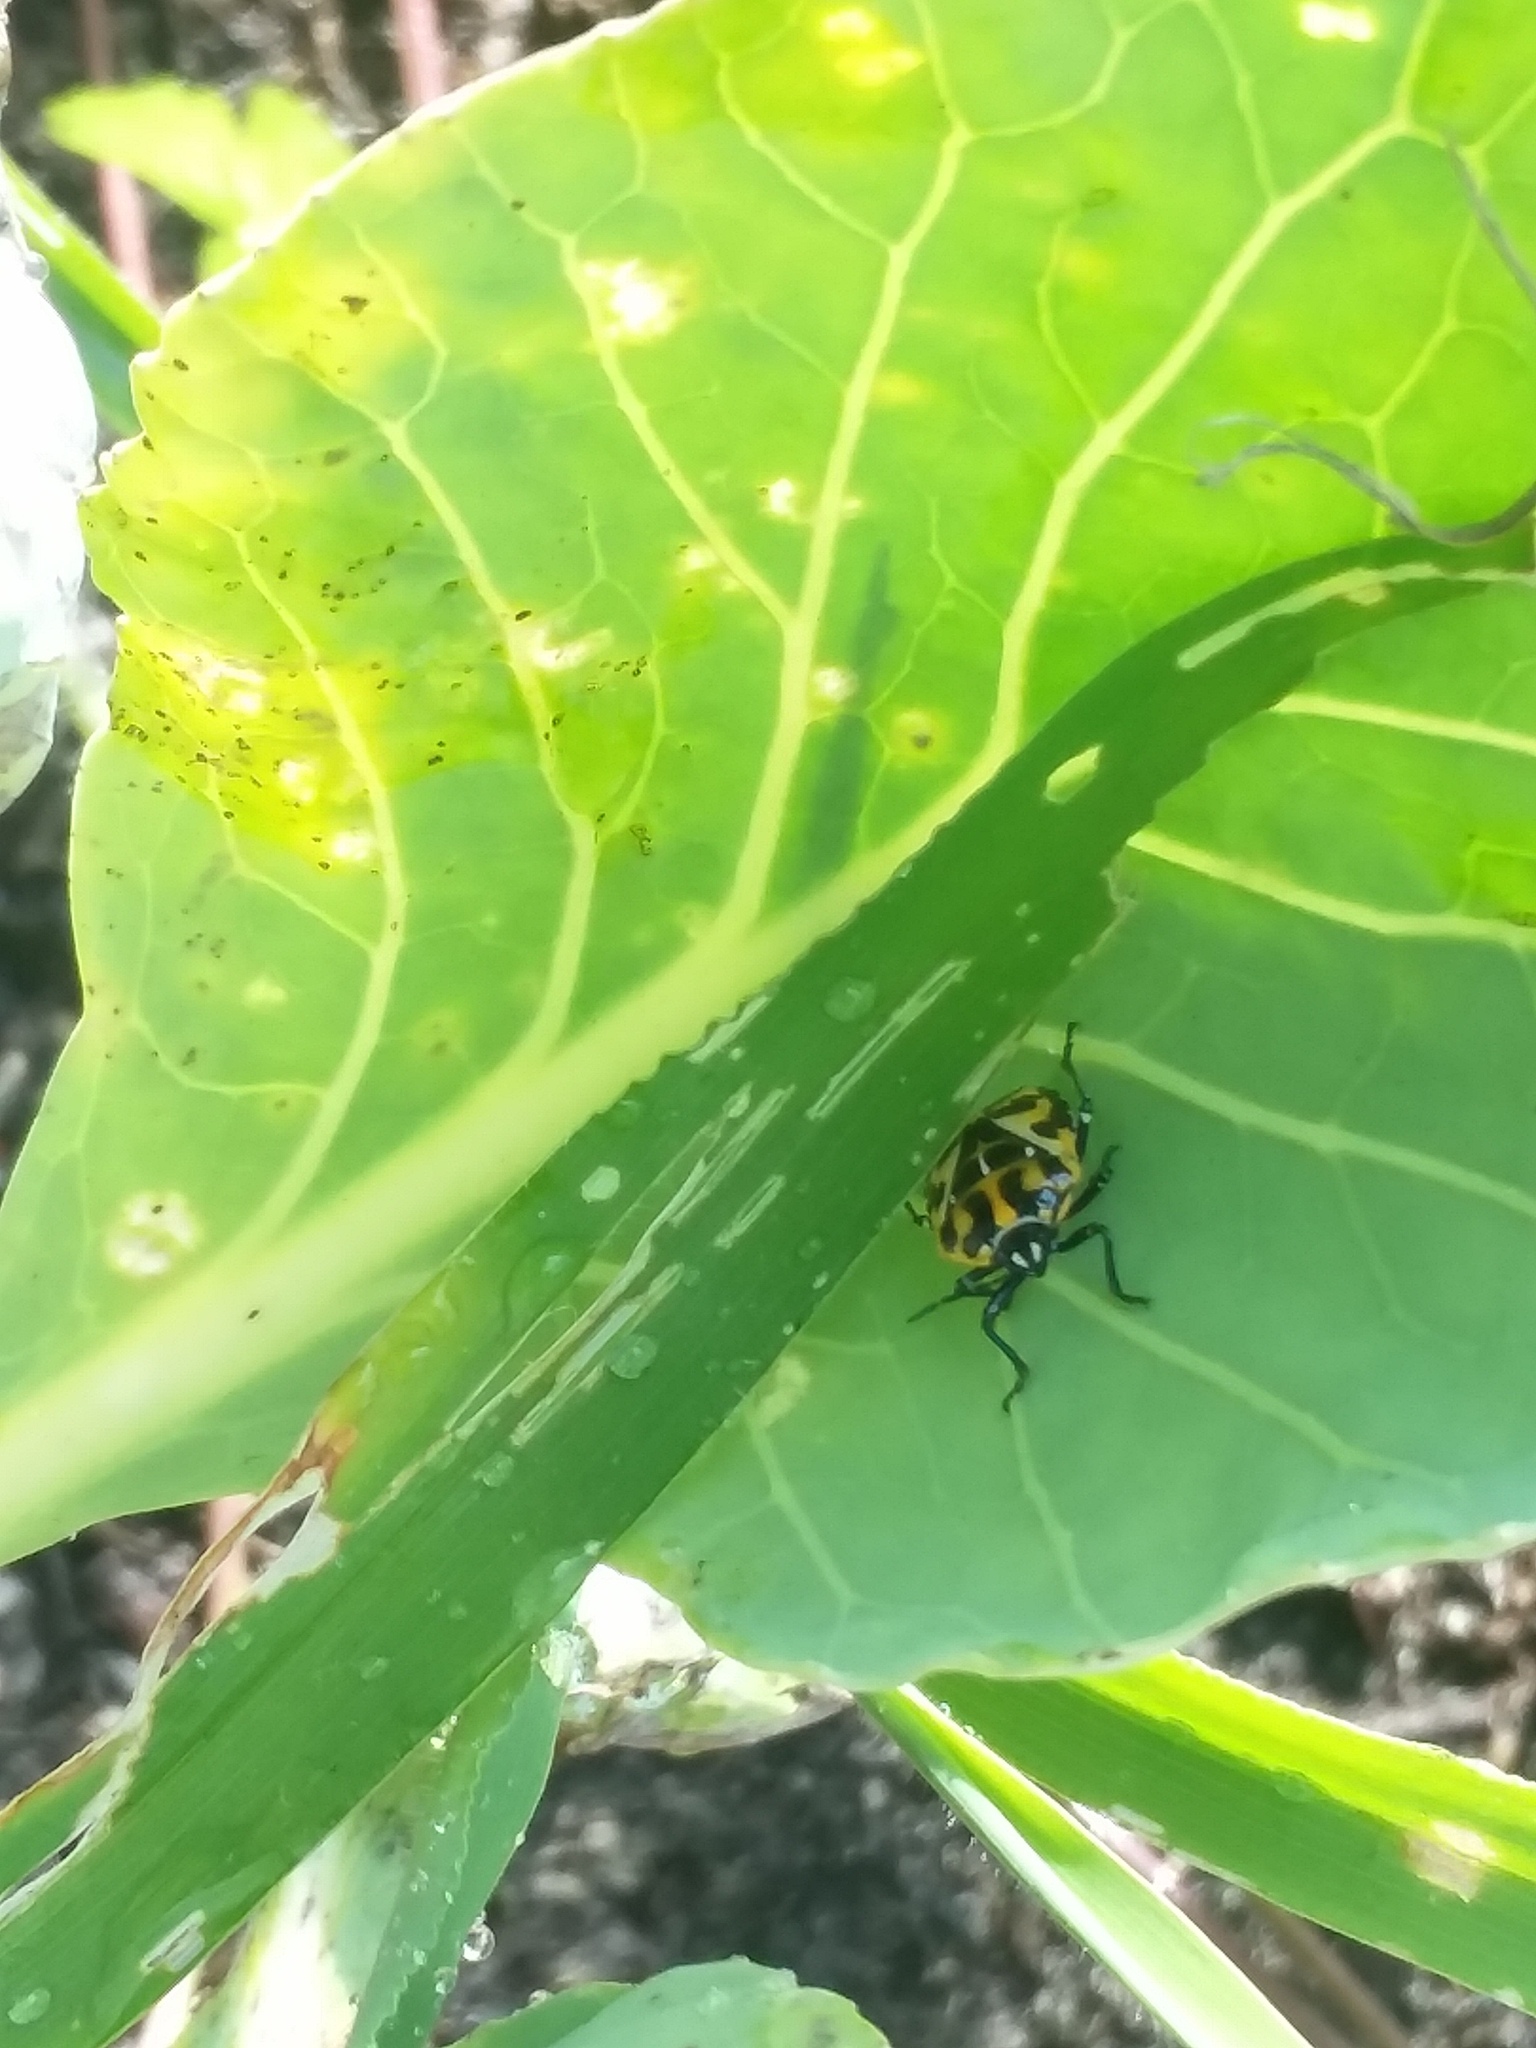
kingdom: Animalia
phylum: Arthropoda
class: Insecta
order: Hemiptera
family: Pentatomidae
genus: Murgantia
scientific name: Murgantia histrionica
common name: Harlequin bug
